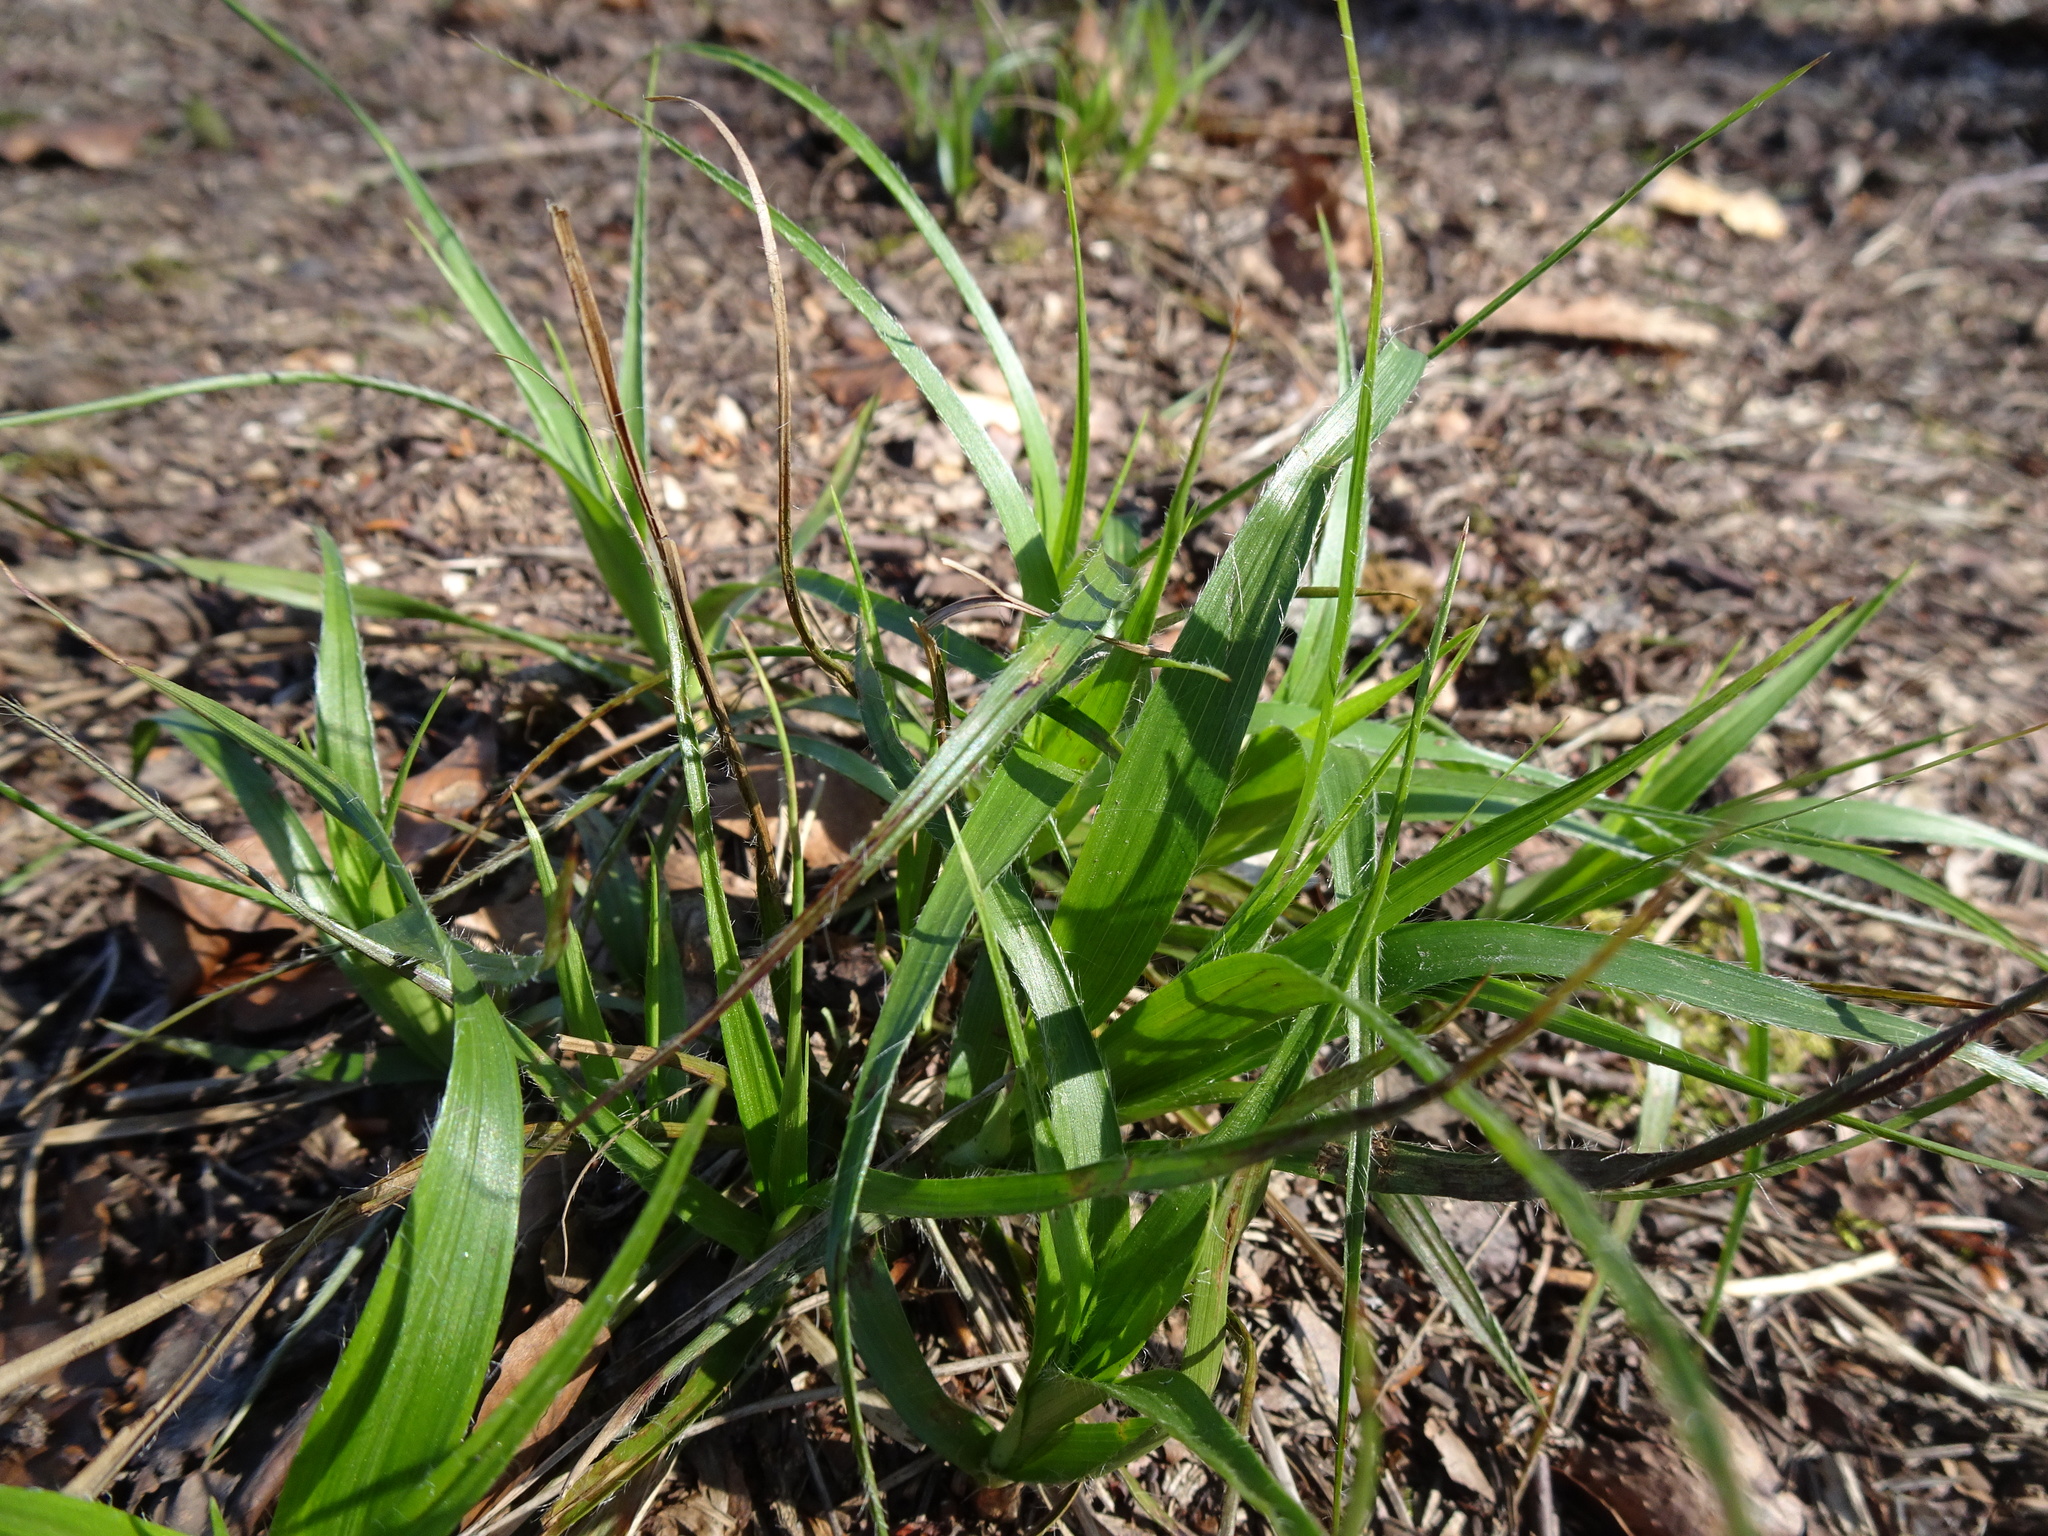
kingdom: Plantae
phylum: Tracheophyta
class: Liliopsida
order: Poales
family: Juncaceae
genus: Luzula
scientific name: Luzula pilosa
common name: Hairy wood-rush
